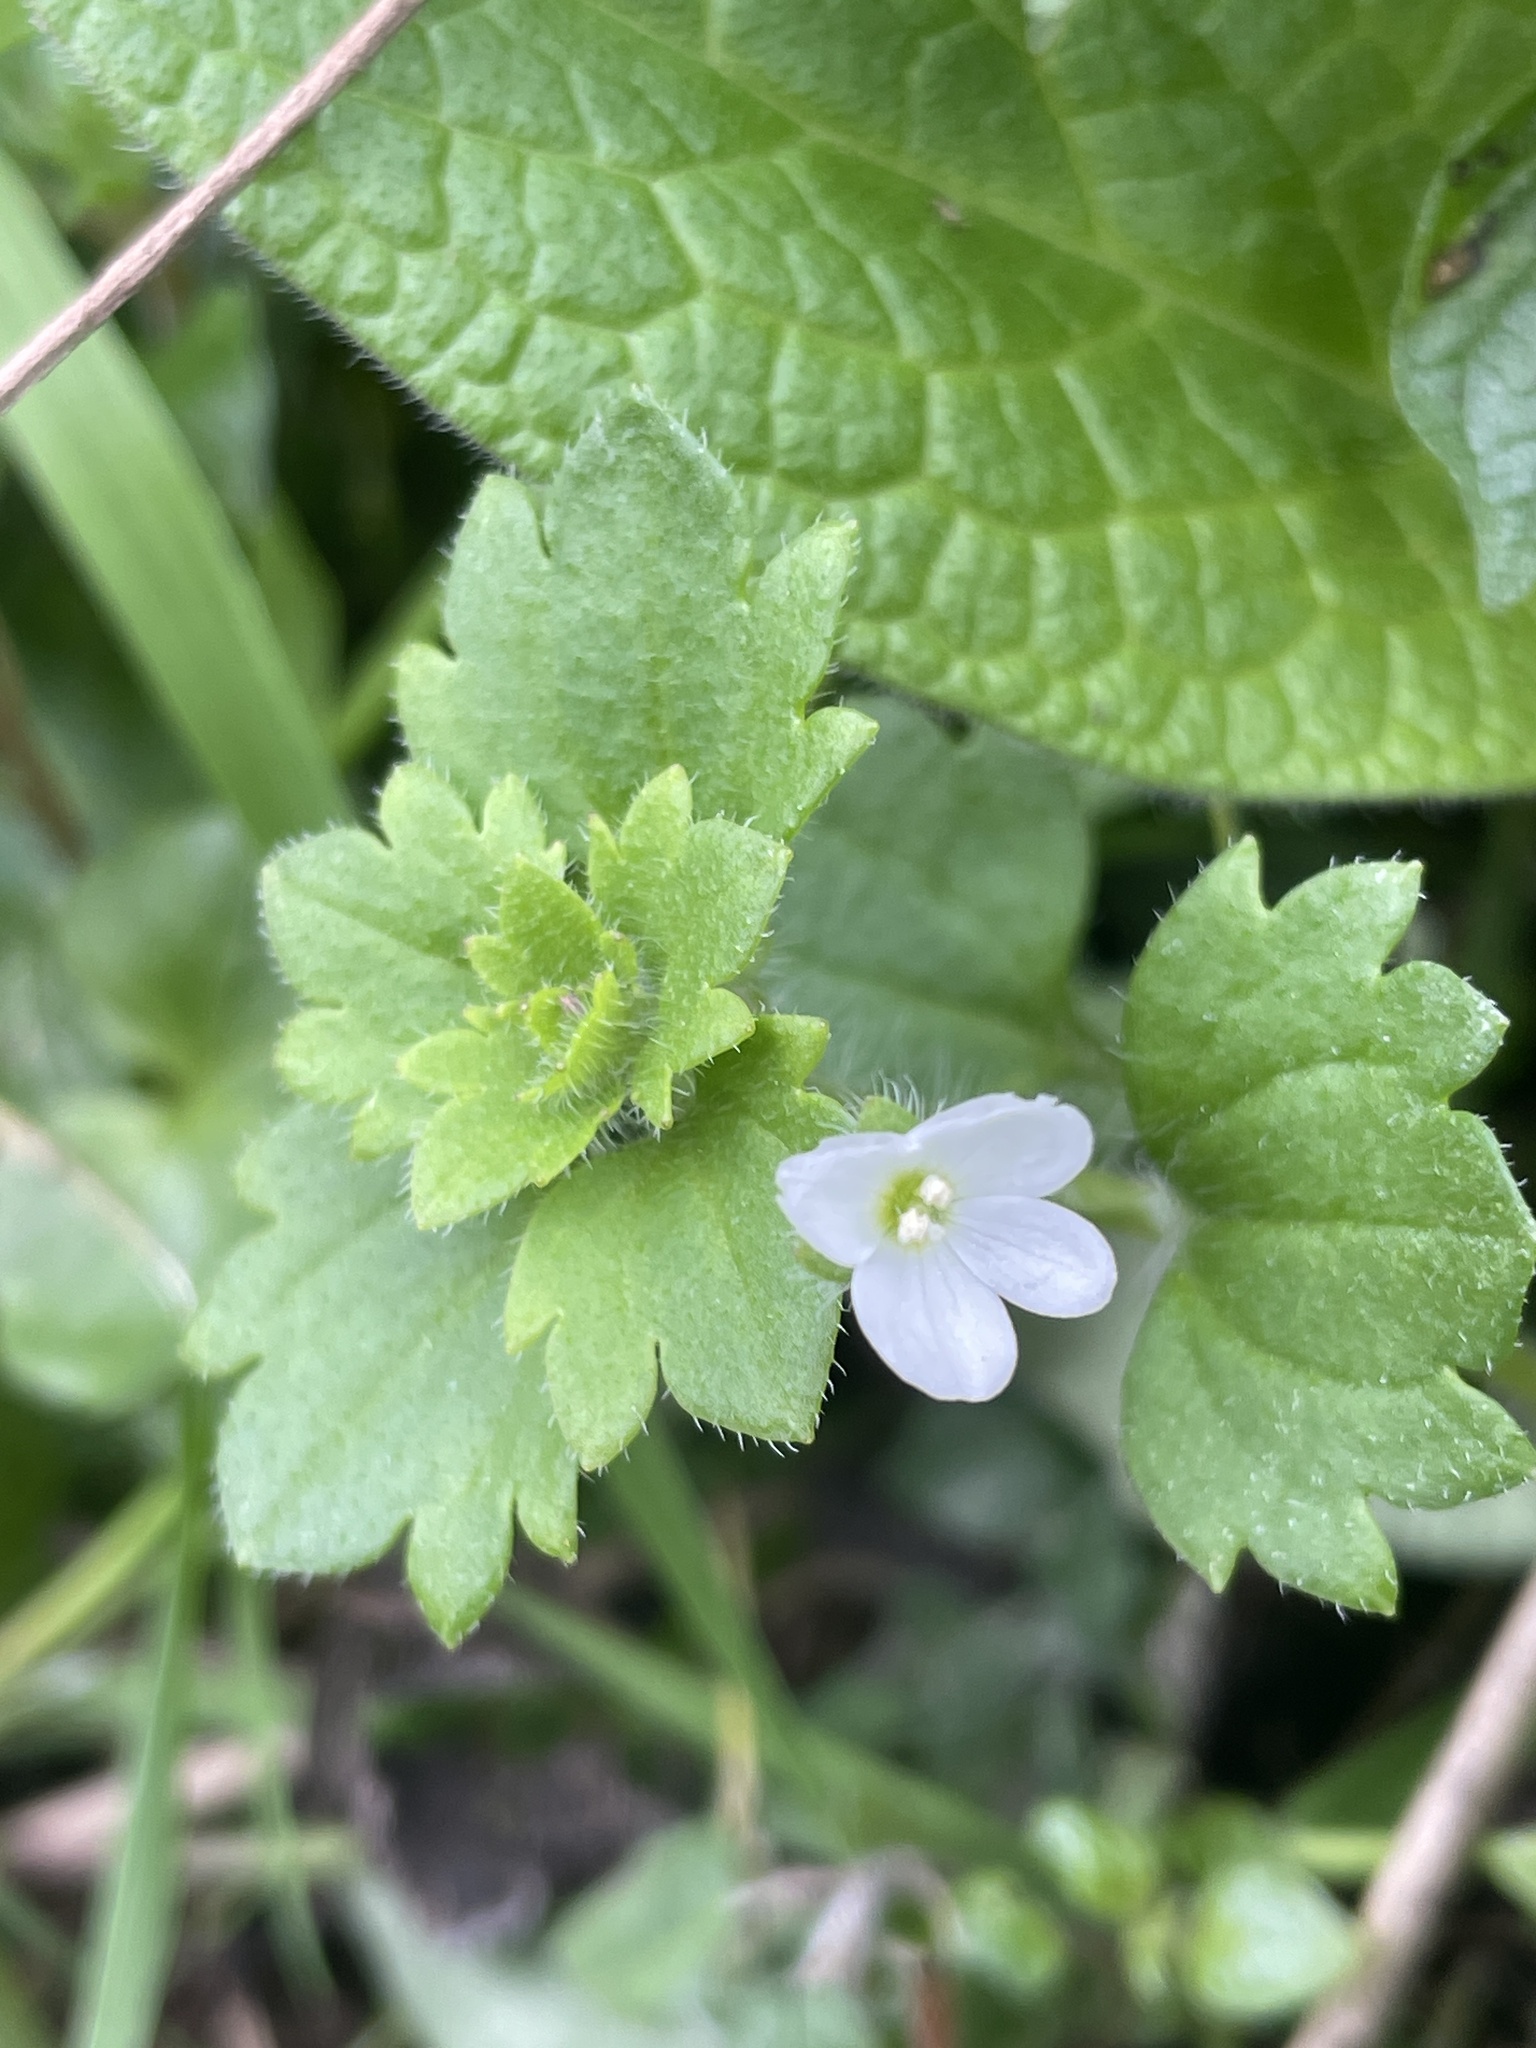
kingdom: Plantae
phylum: Tracheophyta
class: Magnoliopsida
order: Lamiales
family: Plantaginaceae
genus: Veronica
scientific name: Veronica cymbalaria
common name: Pale speedwell
